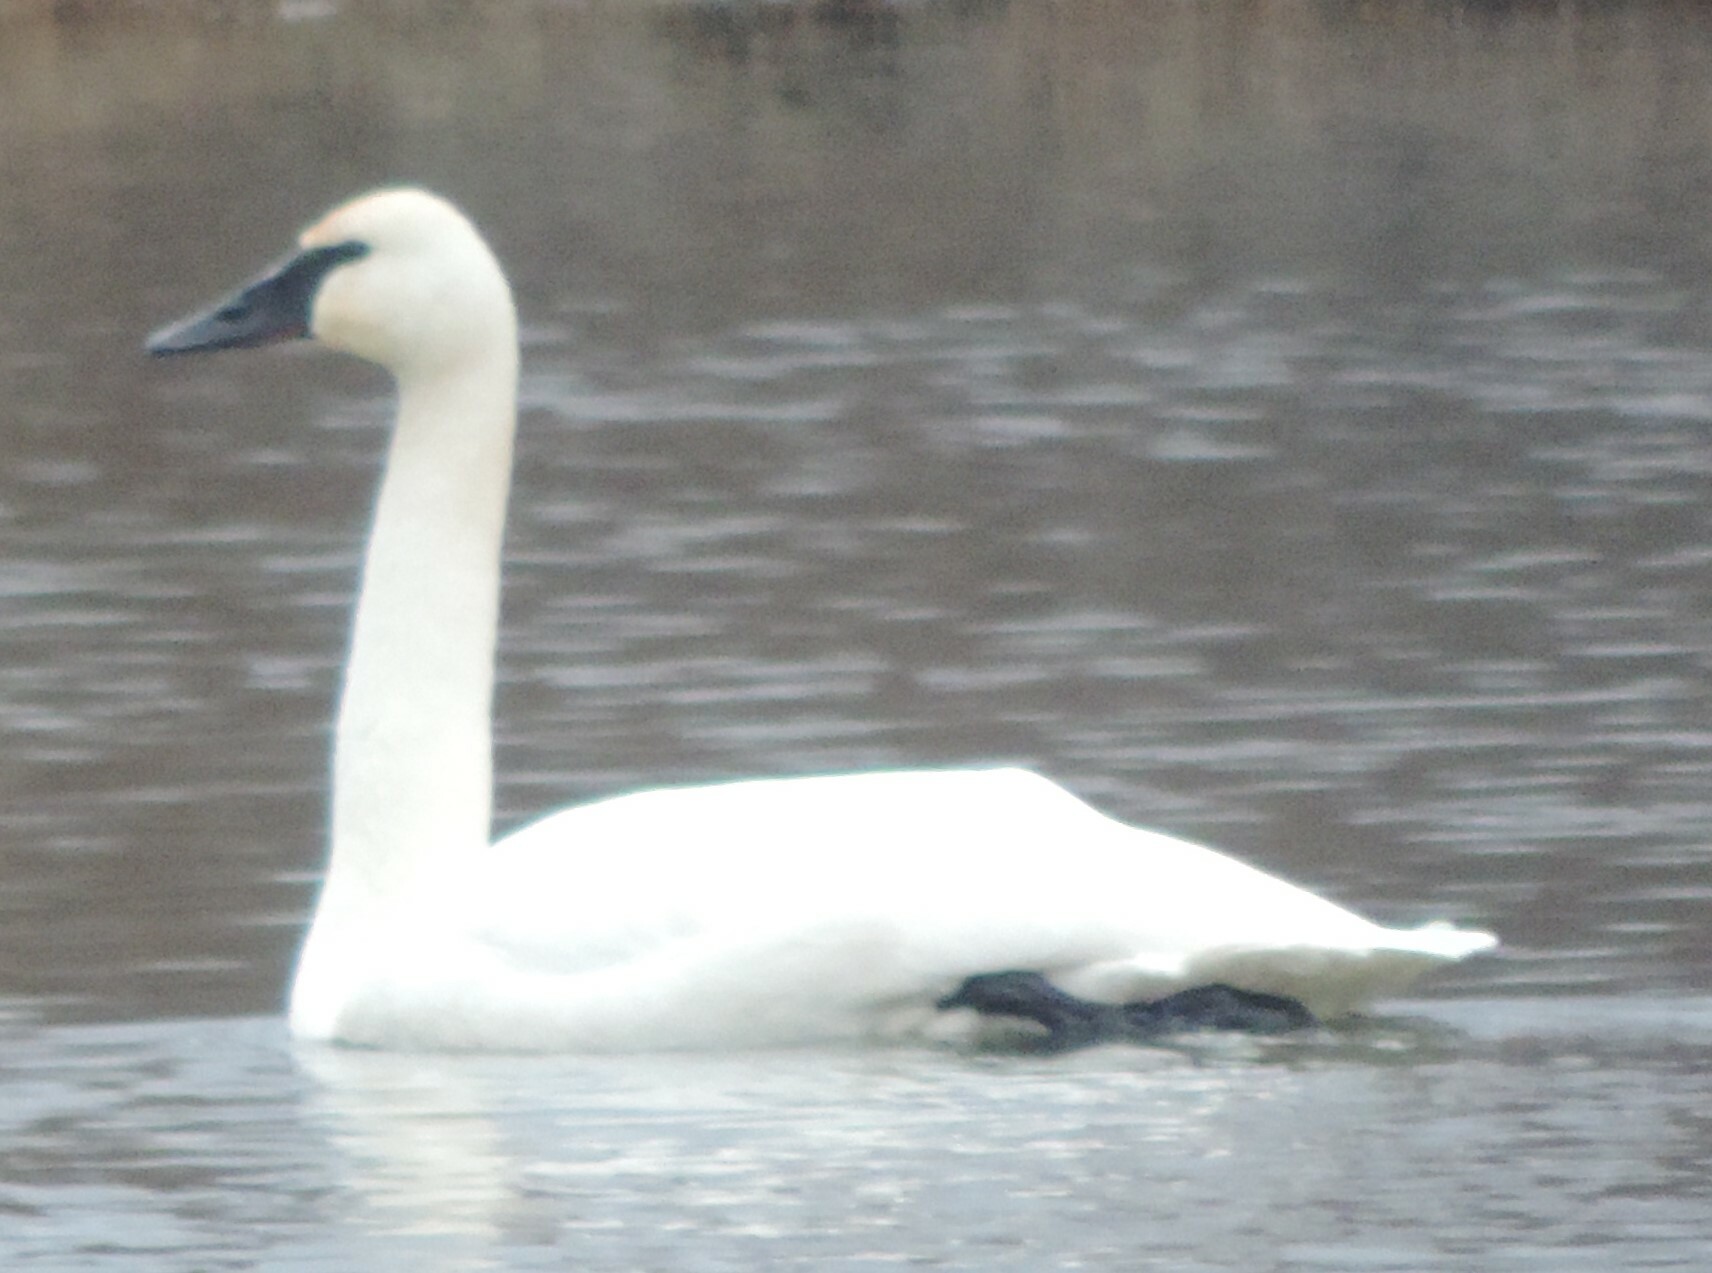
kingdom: Animalia
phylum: Chordata
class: Aves
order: Anseriformes
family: Anatidae
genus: Cygnus
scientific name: Cygnus buccinator
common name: Trumpeter swan
